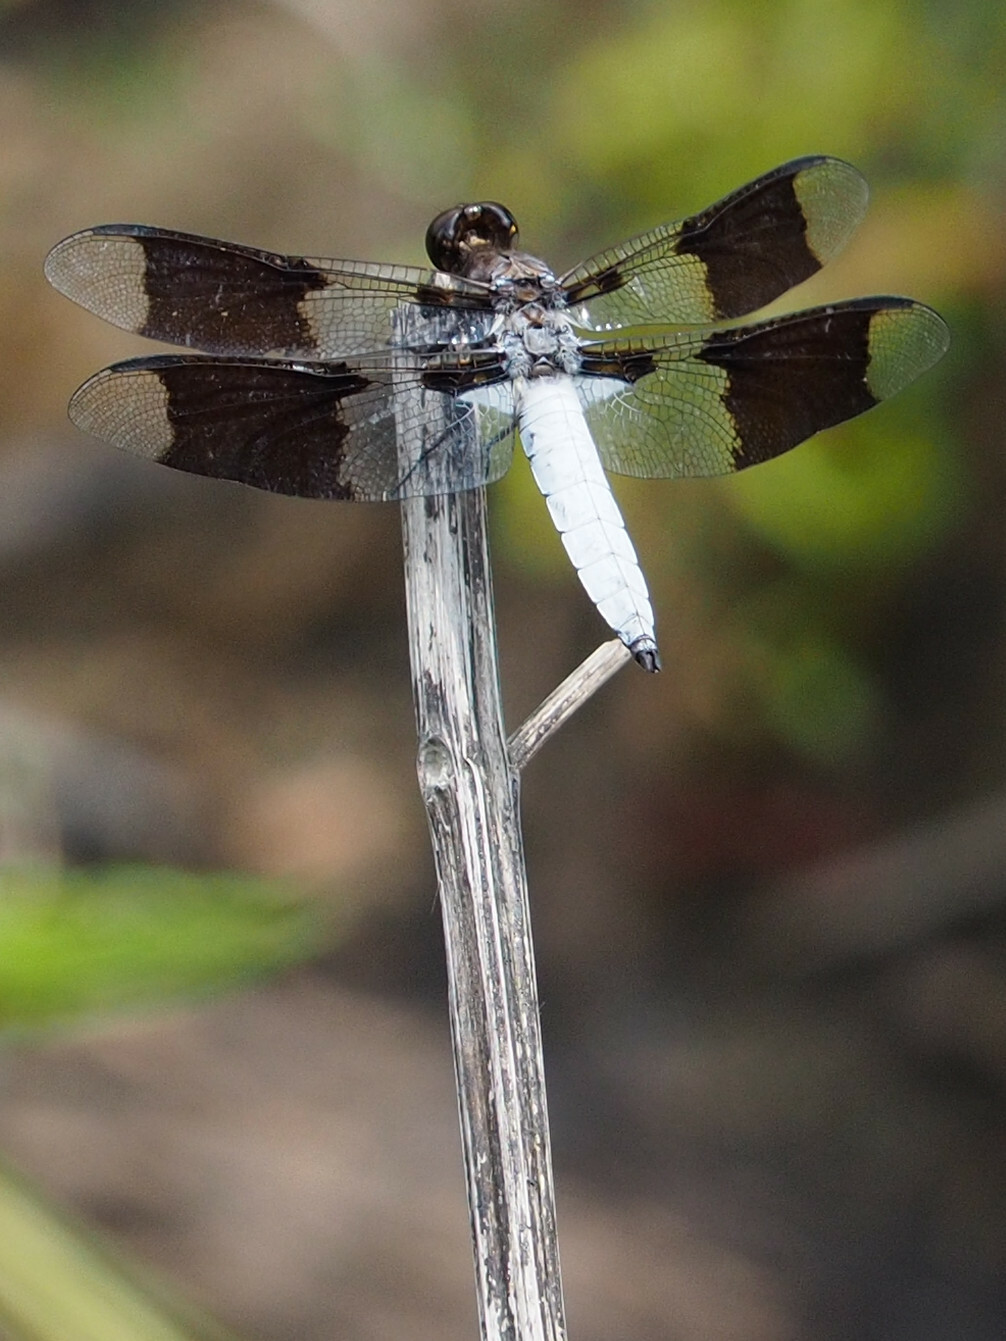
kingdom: Animalia
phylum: Arthropoda
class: Insecta
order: Odonata
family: Libellulidae
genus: Plathemis
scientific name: Plathemis lydia
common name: Common whitetail
